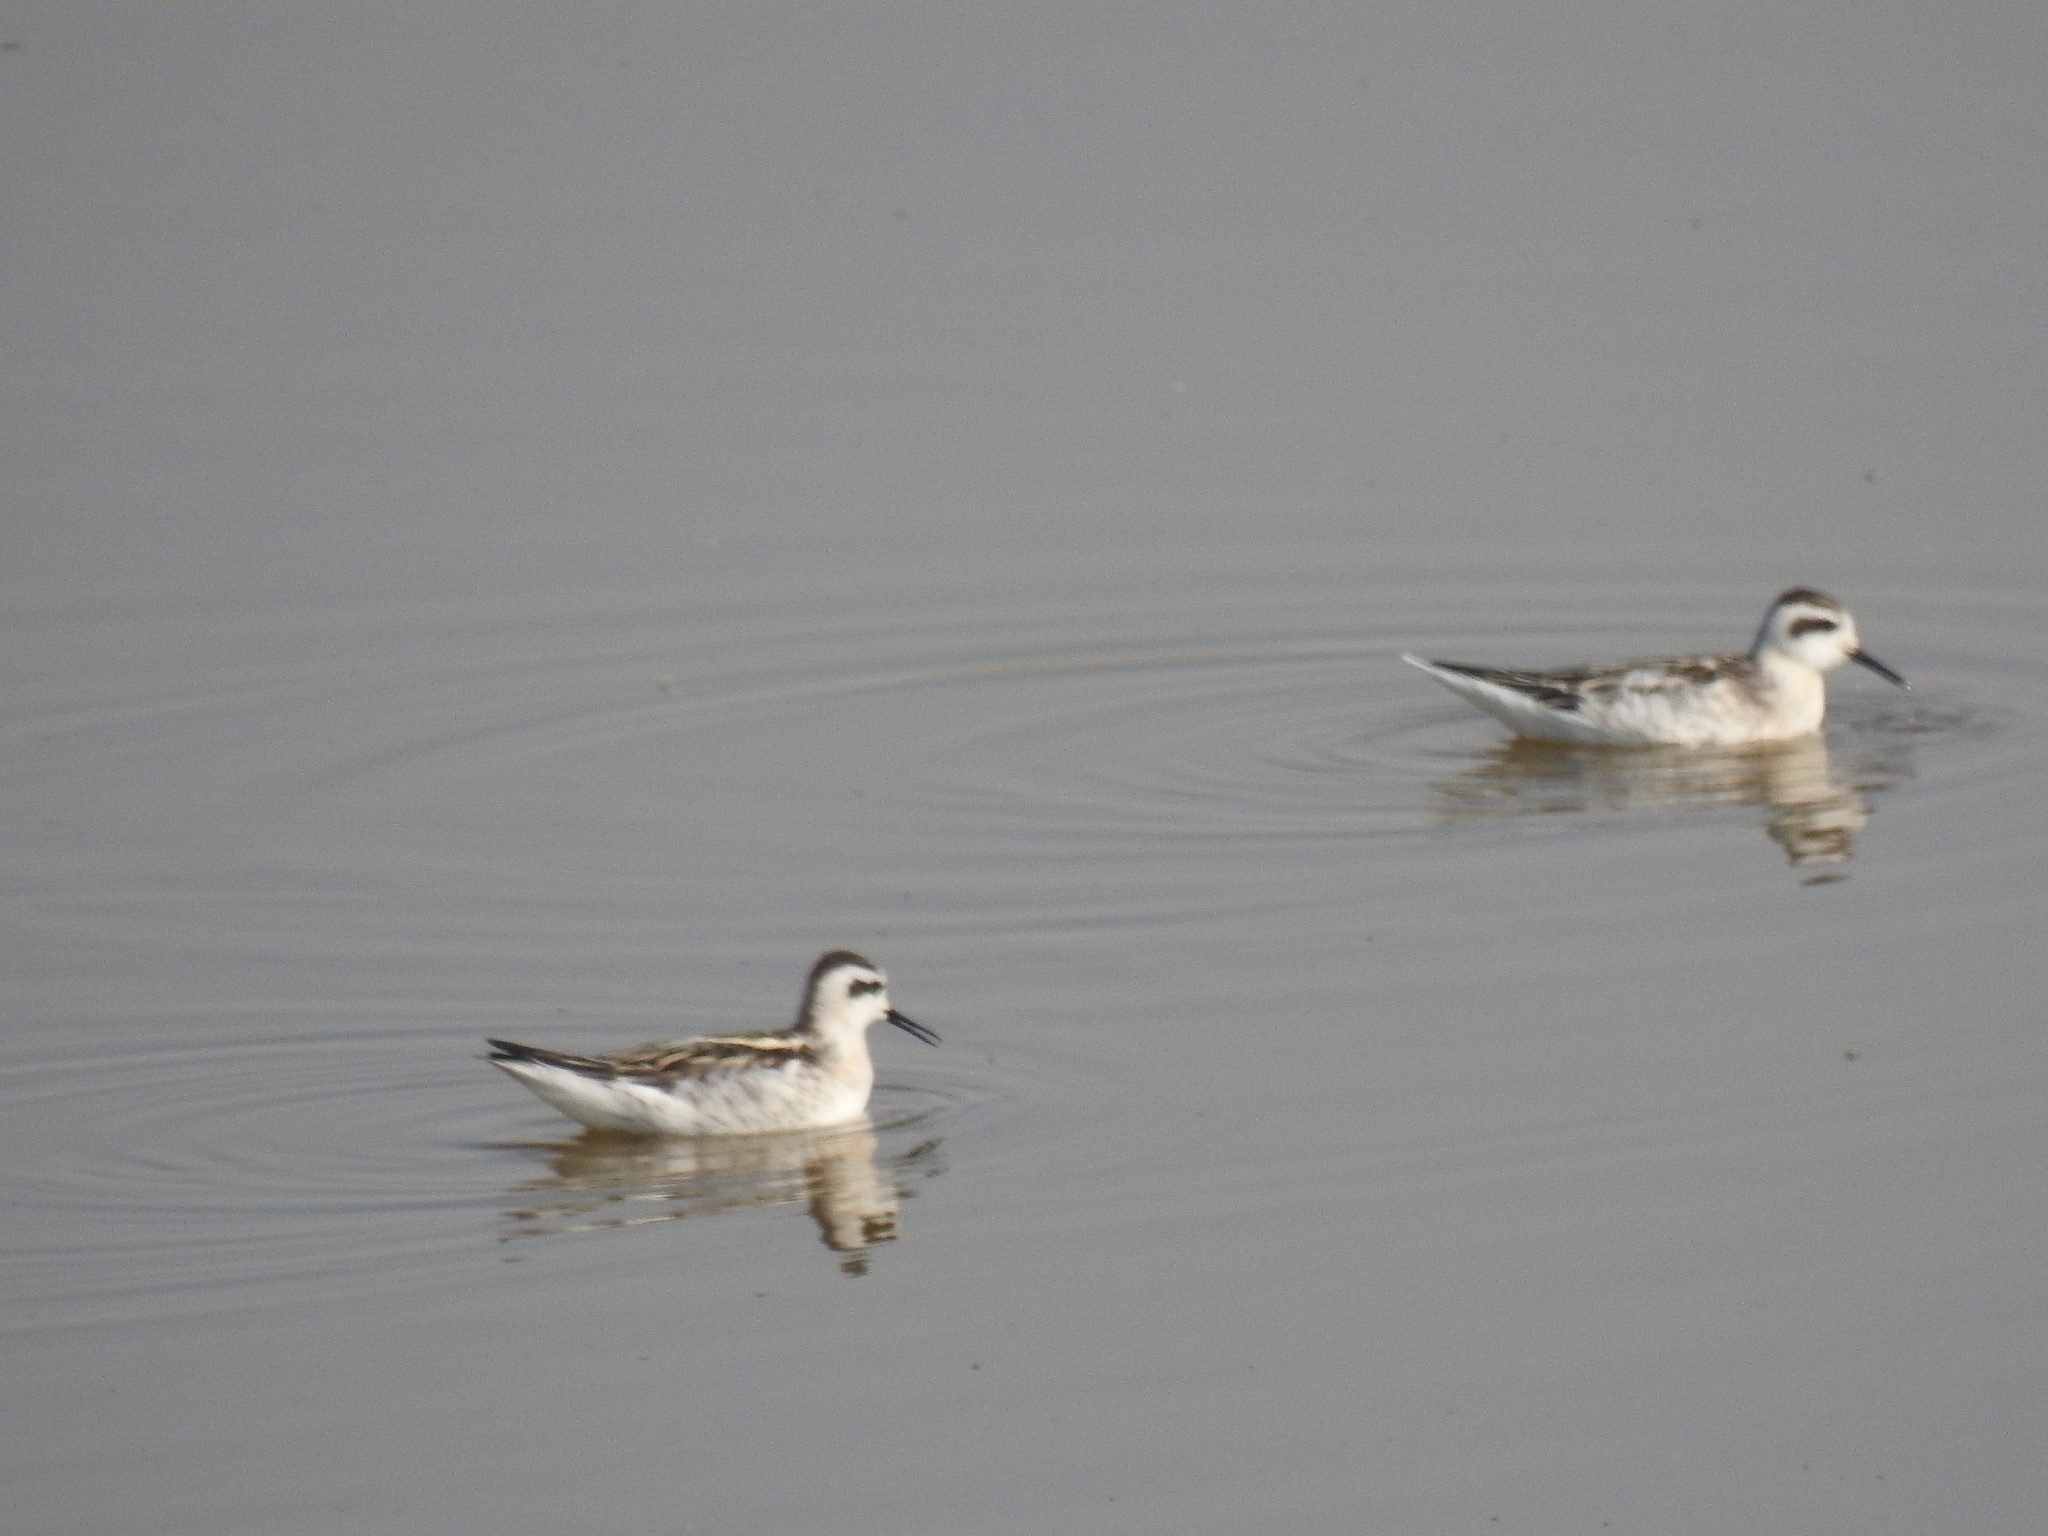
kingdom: Animalia
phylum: Chordata
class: Aves
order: Charadriiformes
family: Scolopacidae
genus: Phalaropus
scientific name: Phalaropus lobatus
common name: Red-necked phalarope
